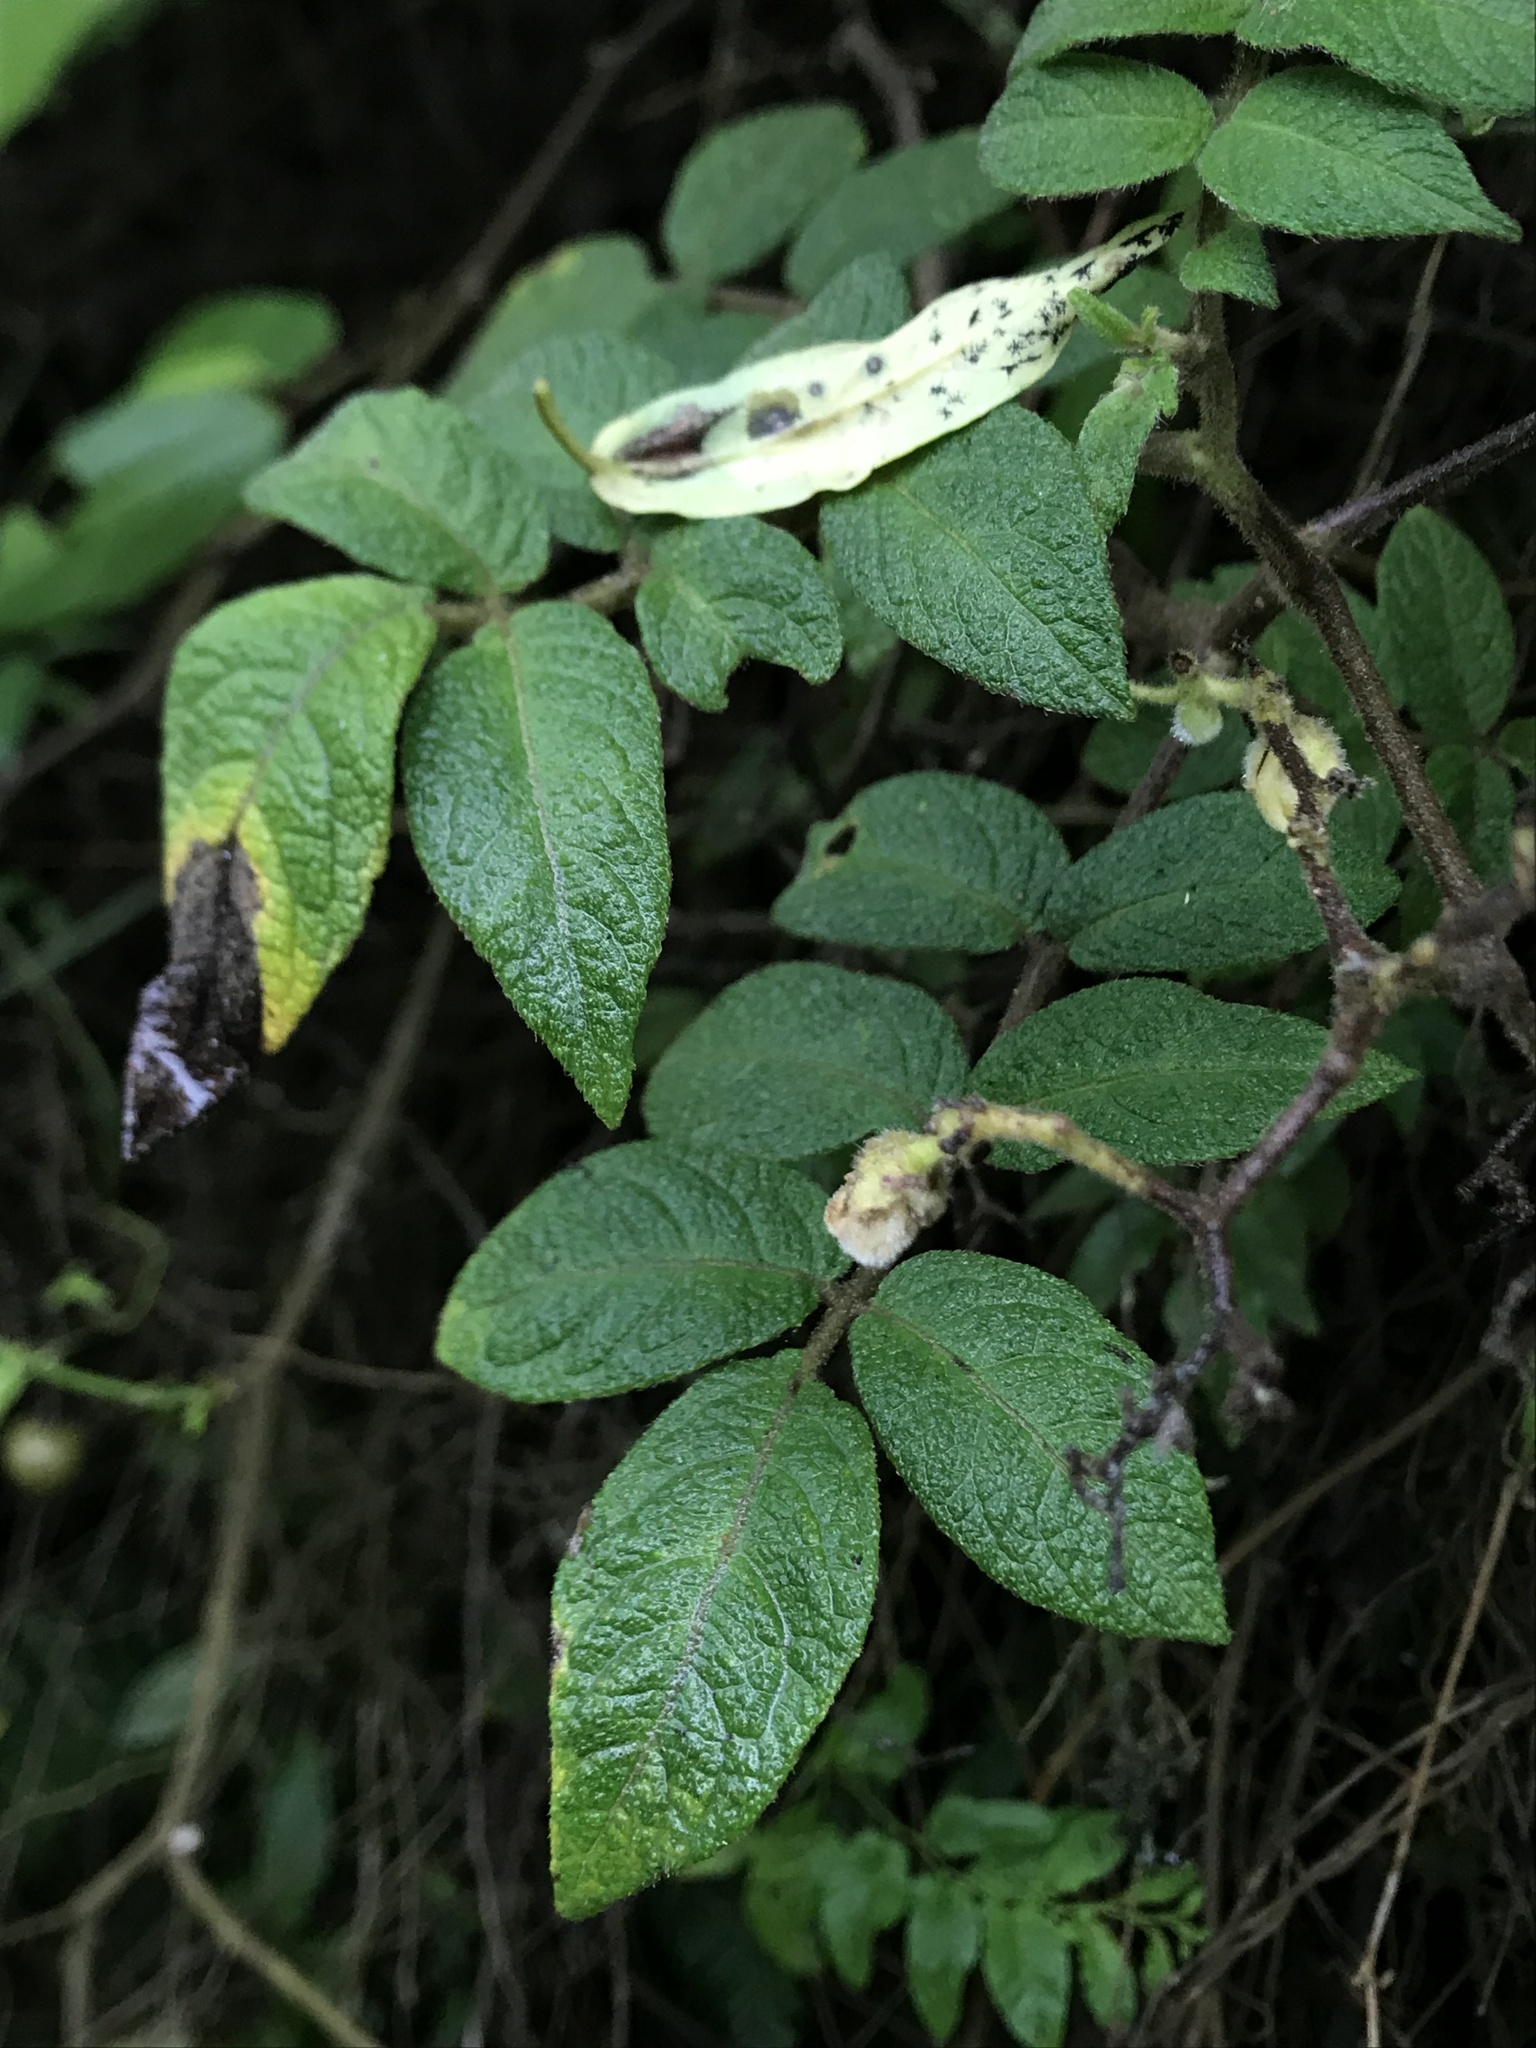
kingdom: Plantae
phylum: Tracheophyta
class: Magnoliopsida
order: Solanales
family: Solanaceae
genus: Solanum
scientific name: Solanum juglandifolium
